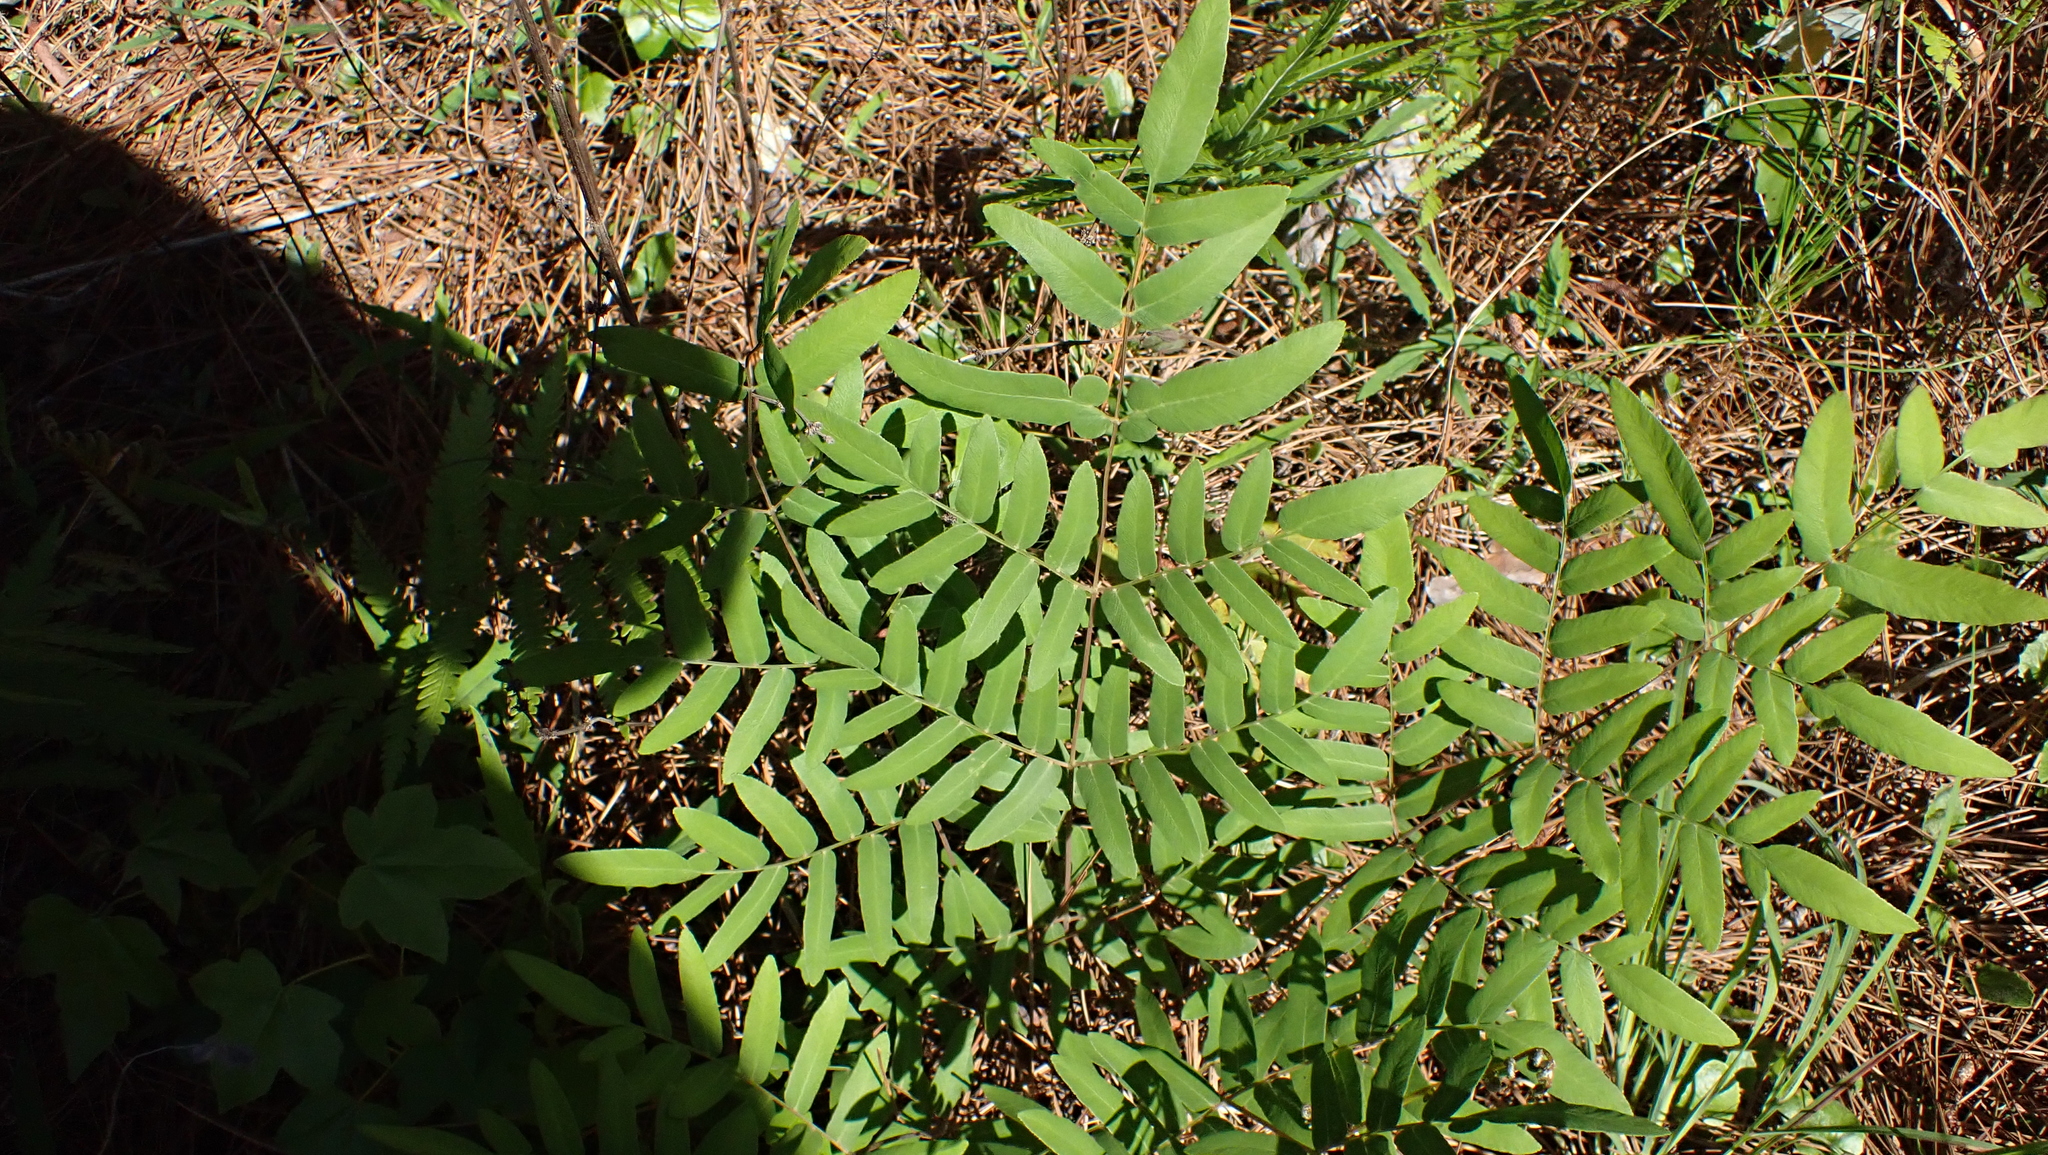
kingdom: Plantae
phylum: Tracheophyta
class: Polypodiopsida
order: Osmundales
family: Osmundaceae
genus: Osmunda
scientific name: Osmunda spectabilis
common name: American royal fern
